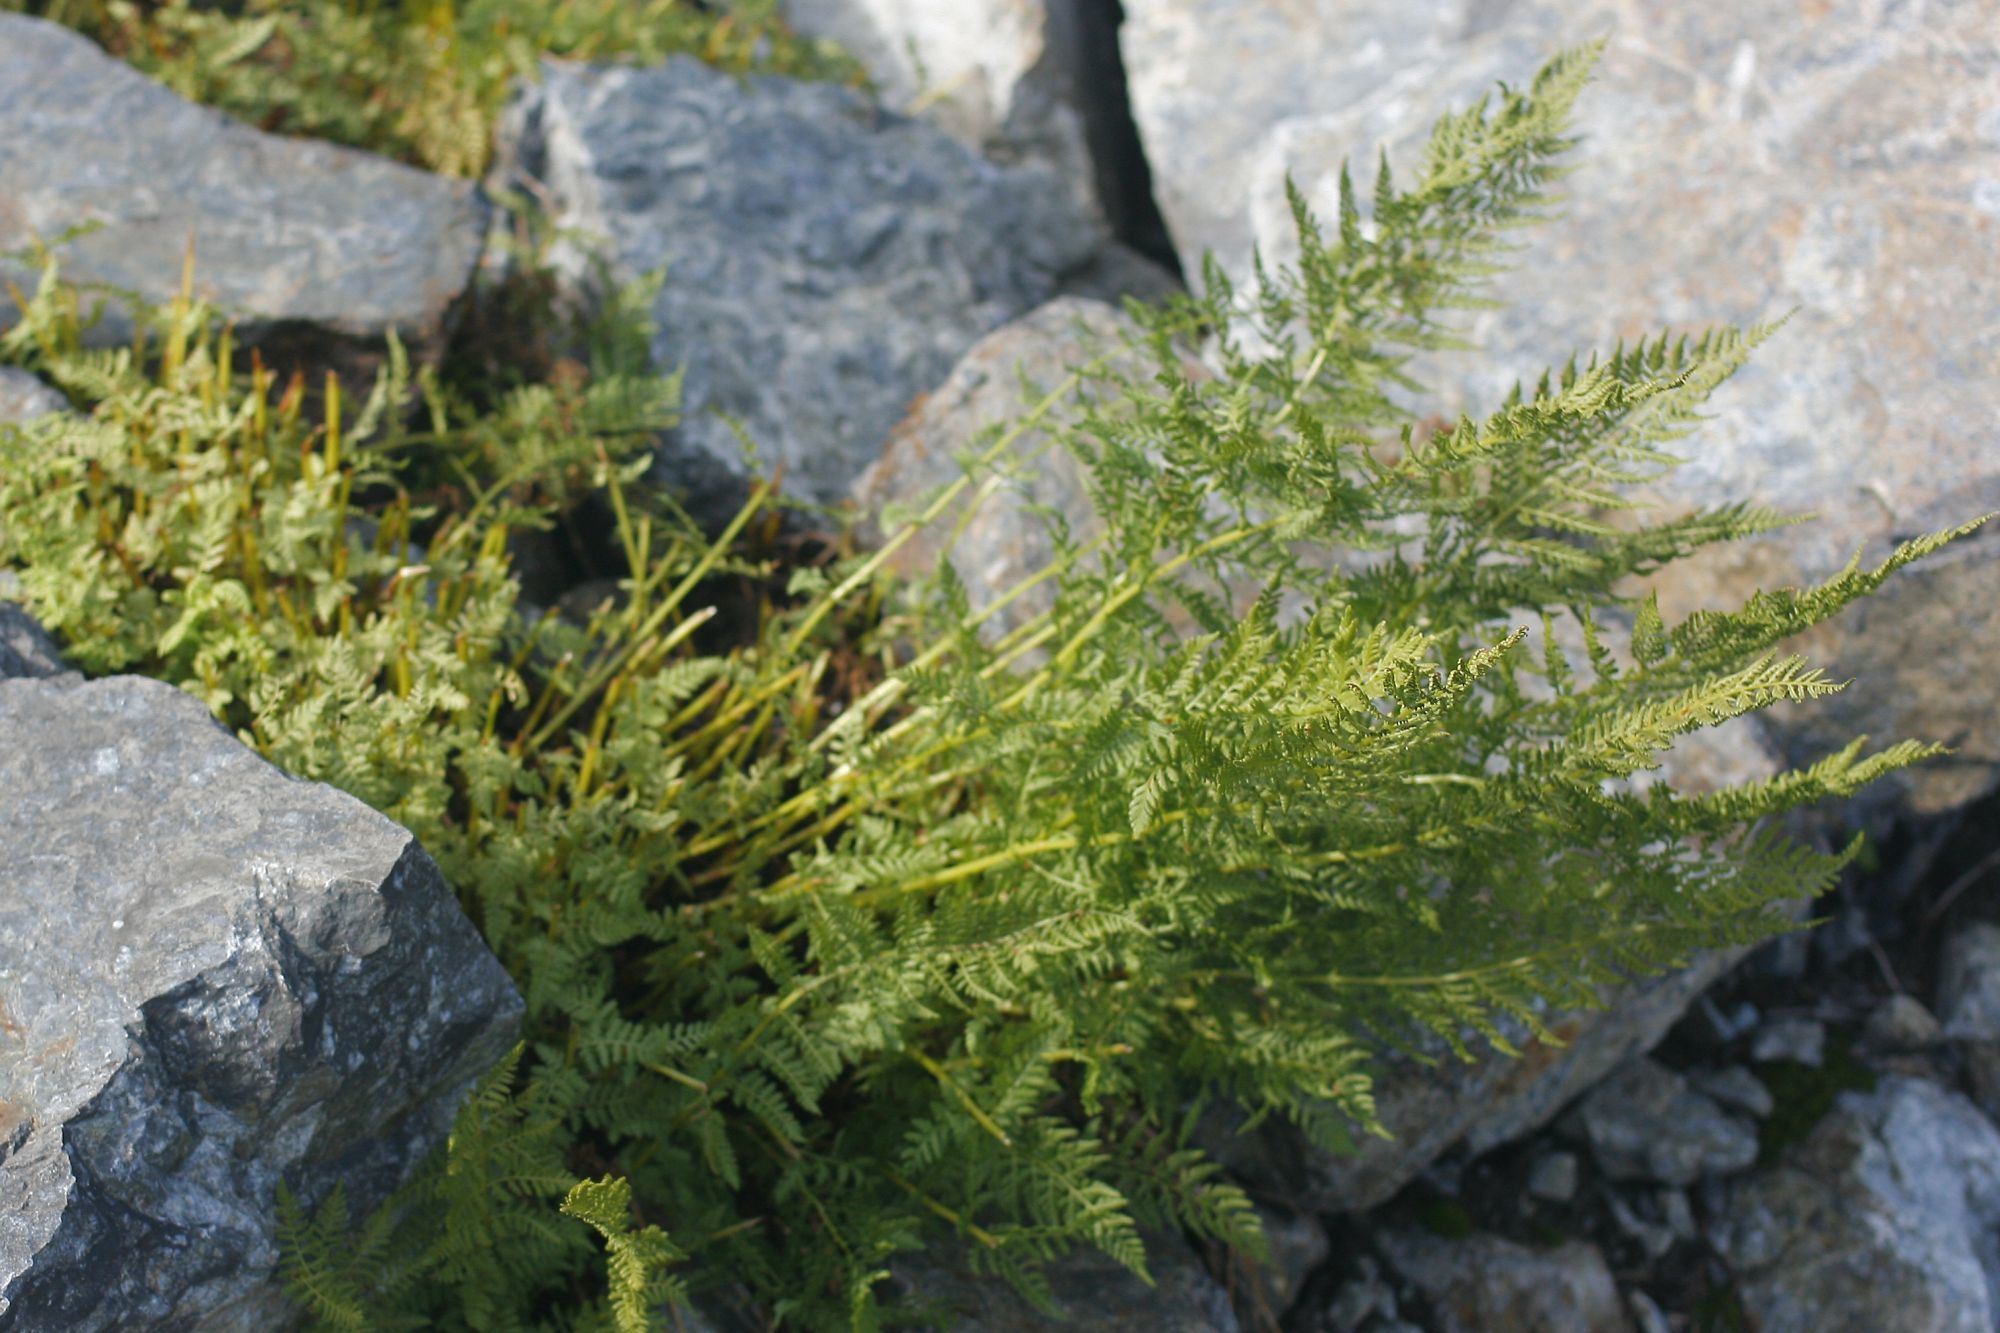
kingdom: Plantae
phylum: Tracheophyta
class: Polypodiopsida
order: Polypodiales
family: Athyriaceae
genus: Athyrium
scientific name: Athyrium americanum
